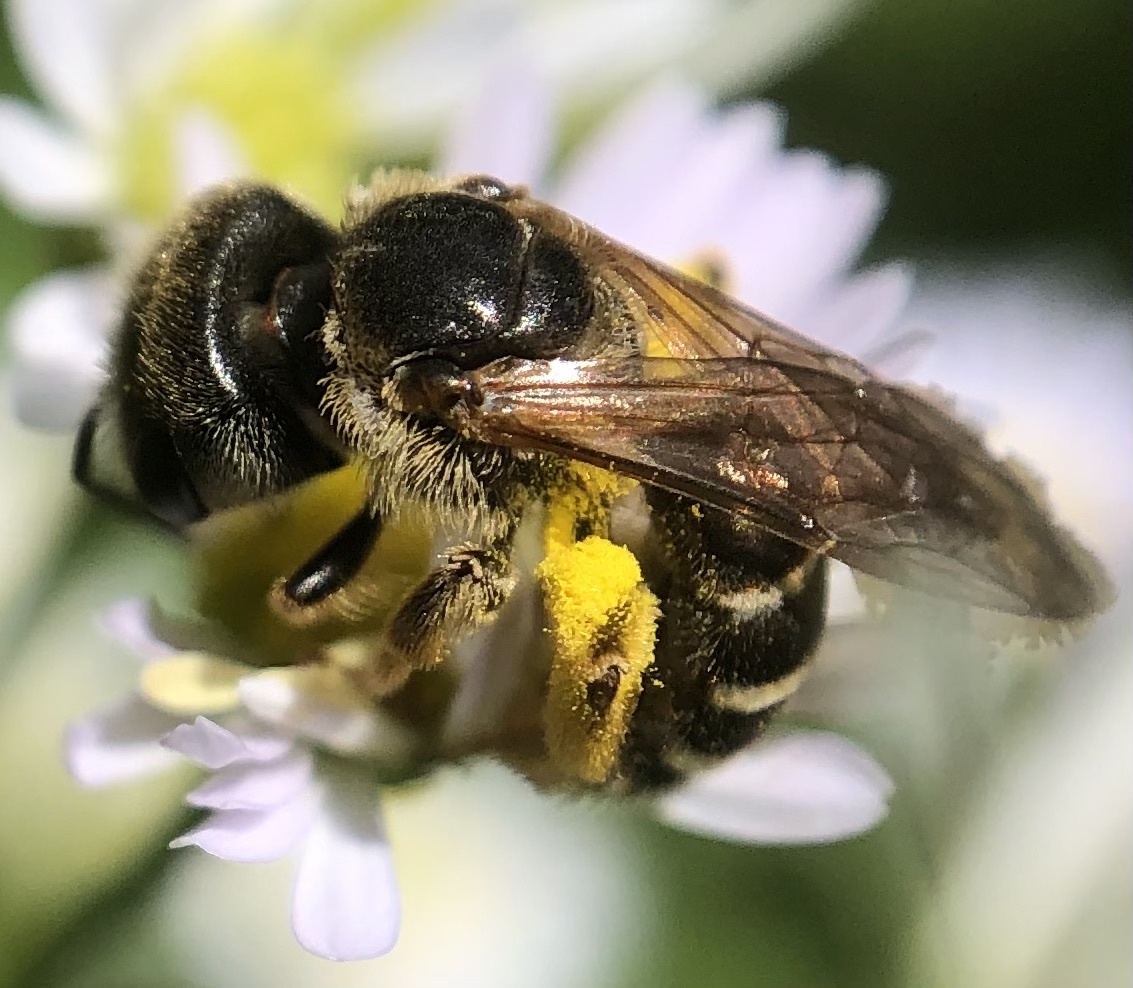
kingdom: Animalia
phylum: Arthropoda
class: Insecta
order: Hymenoptera
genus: Odontalictus
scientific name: Odontalictus
